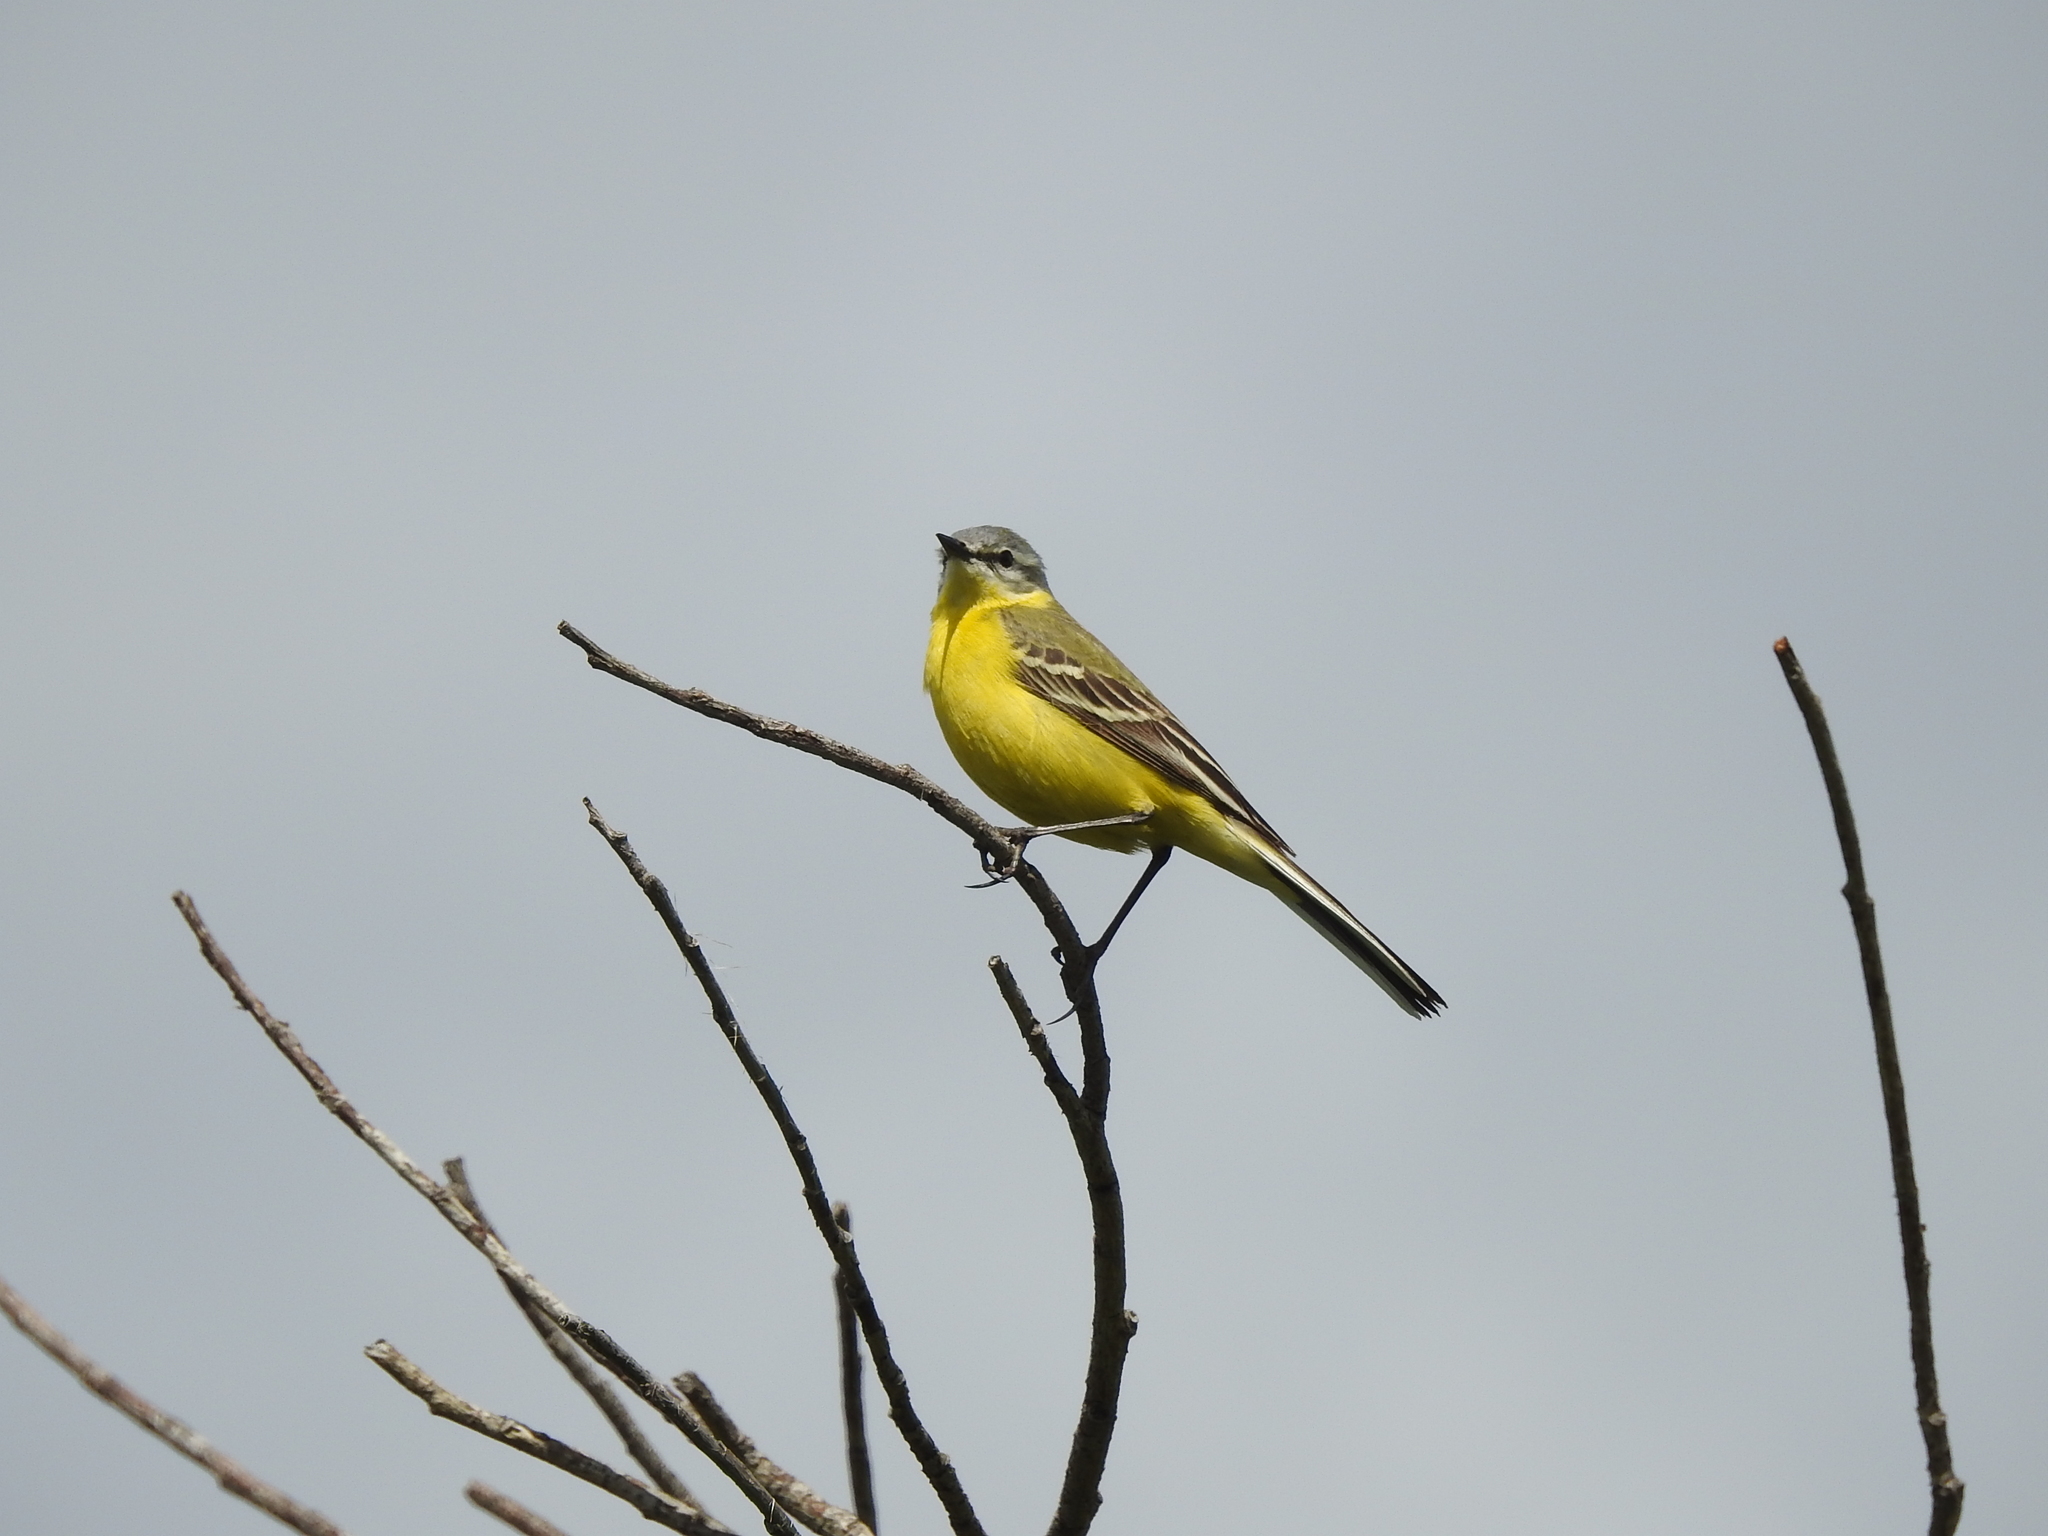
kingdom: Animalia
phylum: Chordata
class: Aves
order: Passeriformes
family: Motacillidae
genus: Motacilla
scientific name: Motacilla flava
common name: Western yellow wagtail
